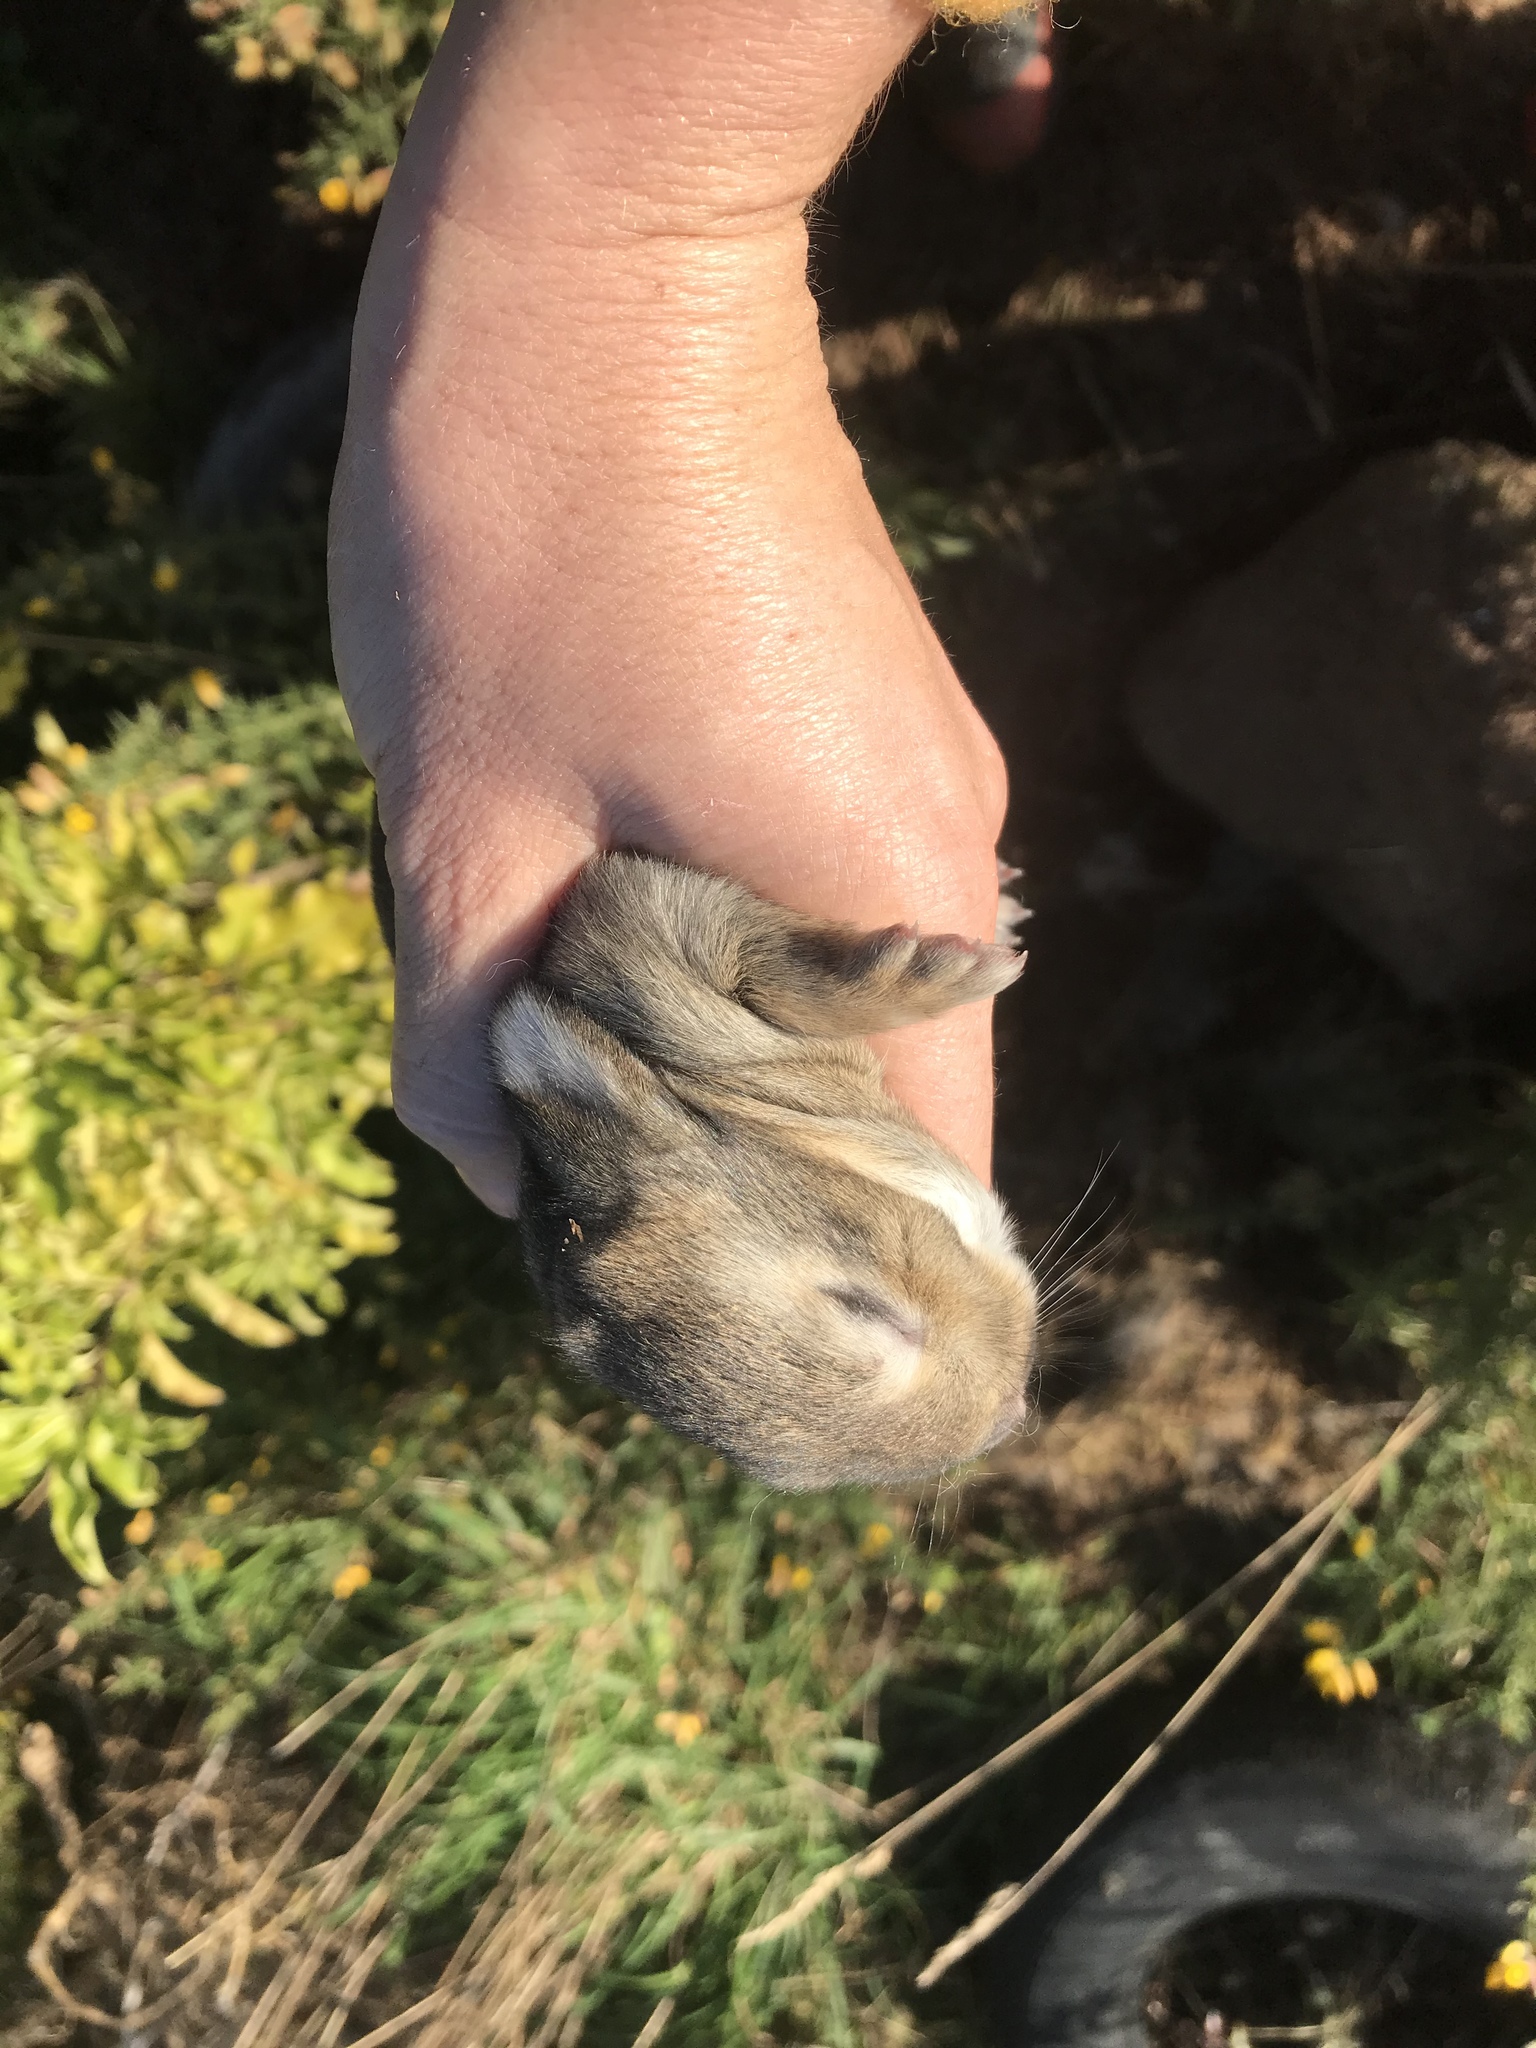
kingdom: Animalia
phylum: Chordata
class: Mammalia
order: Lagomorpha
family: Leporidae
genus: Oryctolagus
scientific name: Oryctolagus cuniculus
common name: European rabbit
